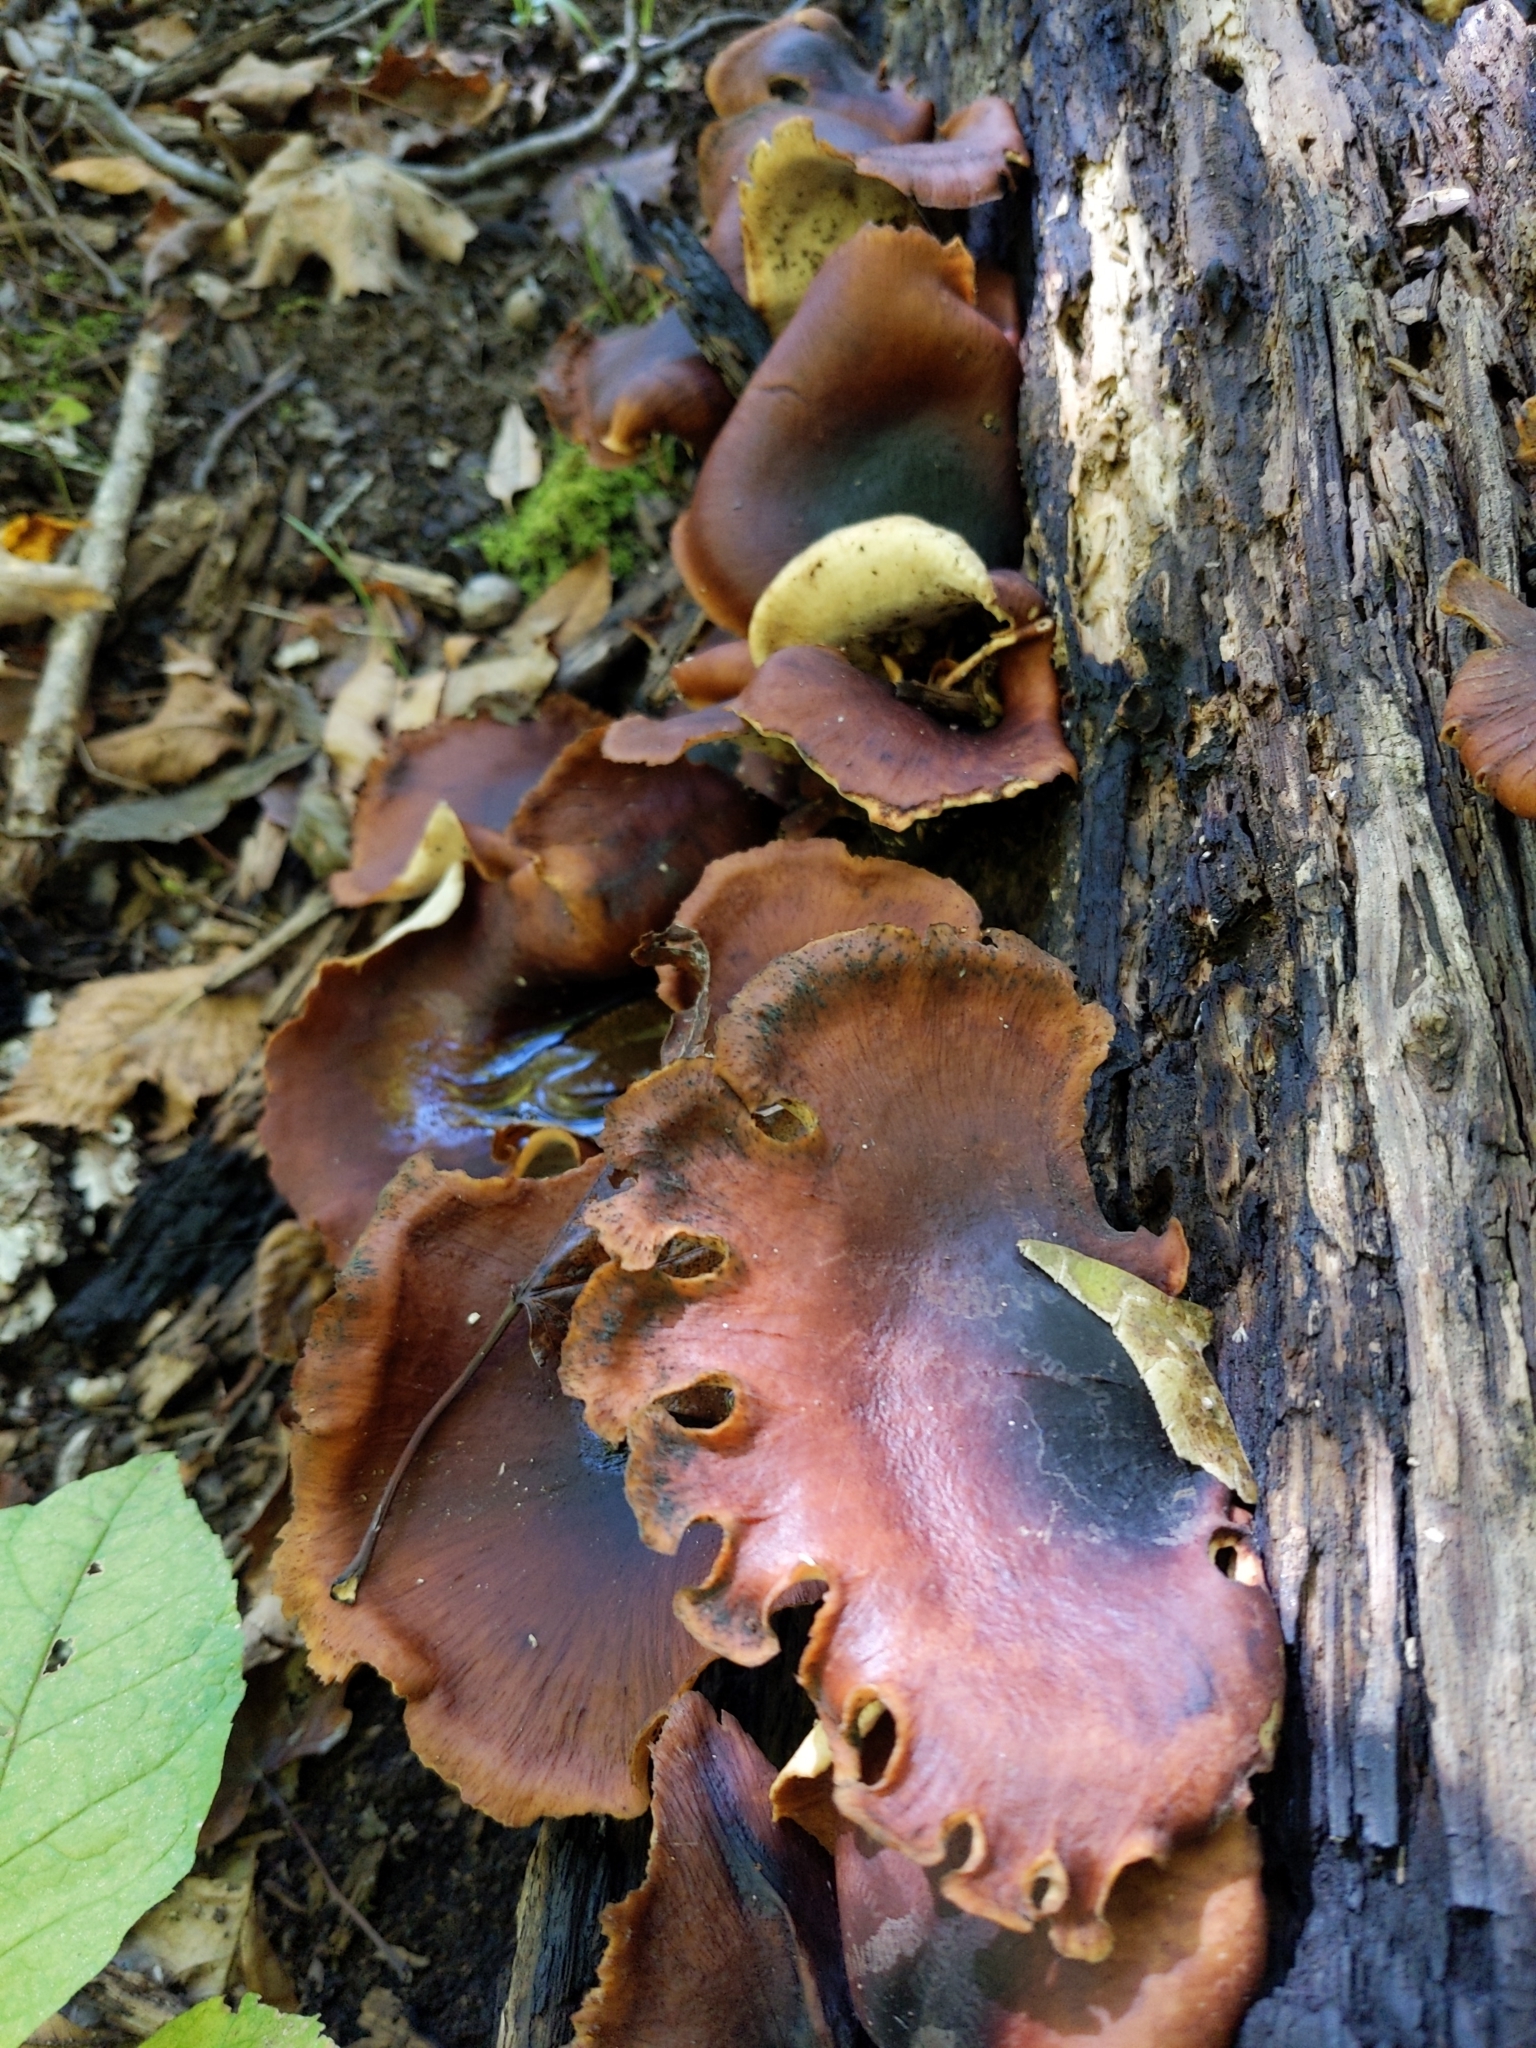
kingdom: Fungi
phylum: Basidiomycota
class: Agaricomycetes
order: Polyporales
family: Polyporaceae
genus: Picipes
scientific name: Picipes badius
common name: Bay polypore
